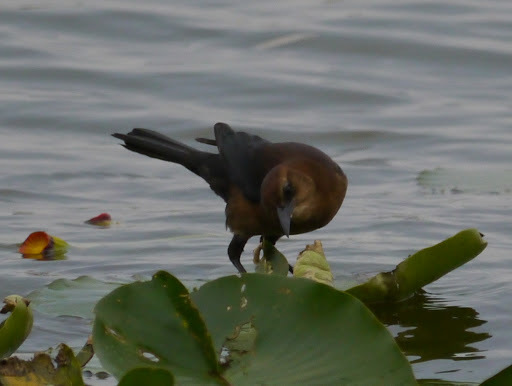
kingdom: Animalia
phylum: Chordata
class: Aves
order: Passeriformes
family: Icteridae
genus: Quiscalus
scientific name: Quiscalus quiscula
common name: Common grackle
